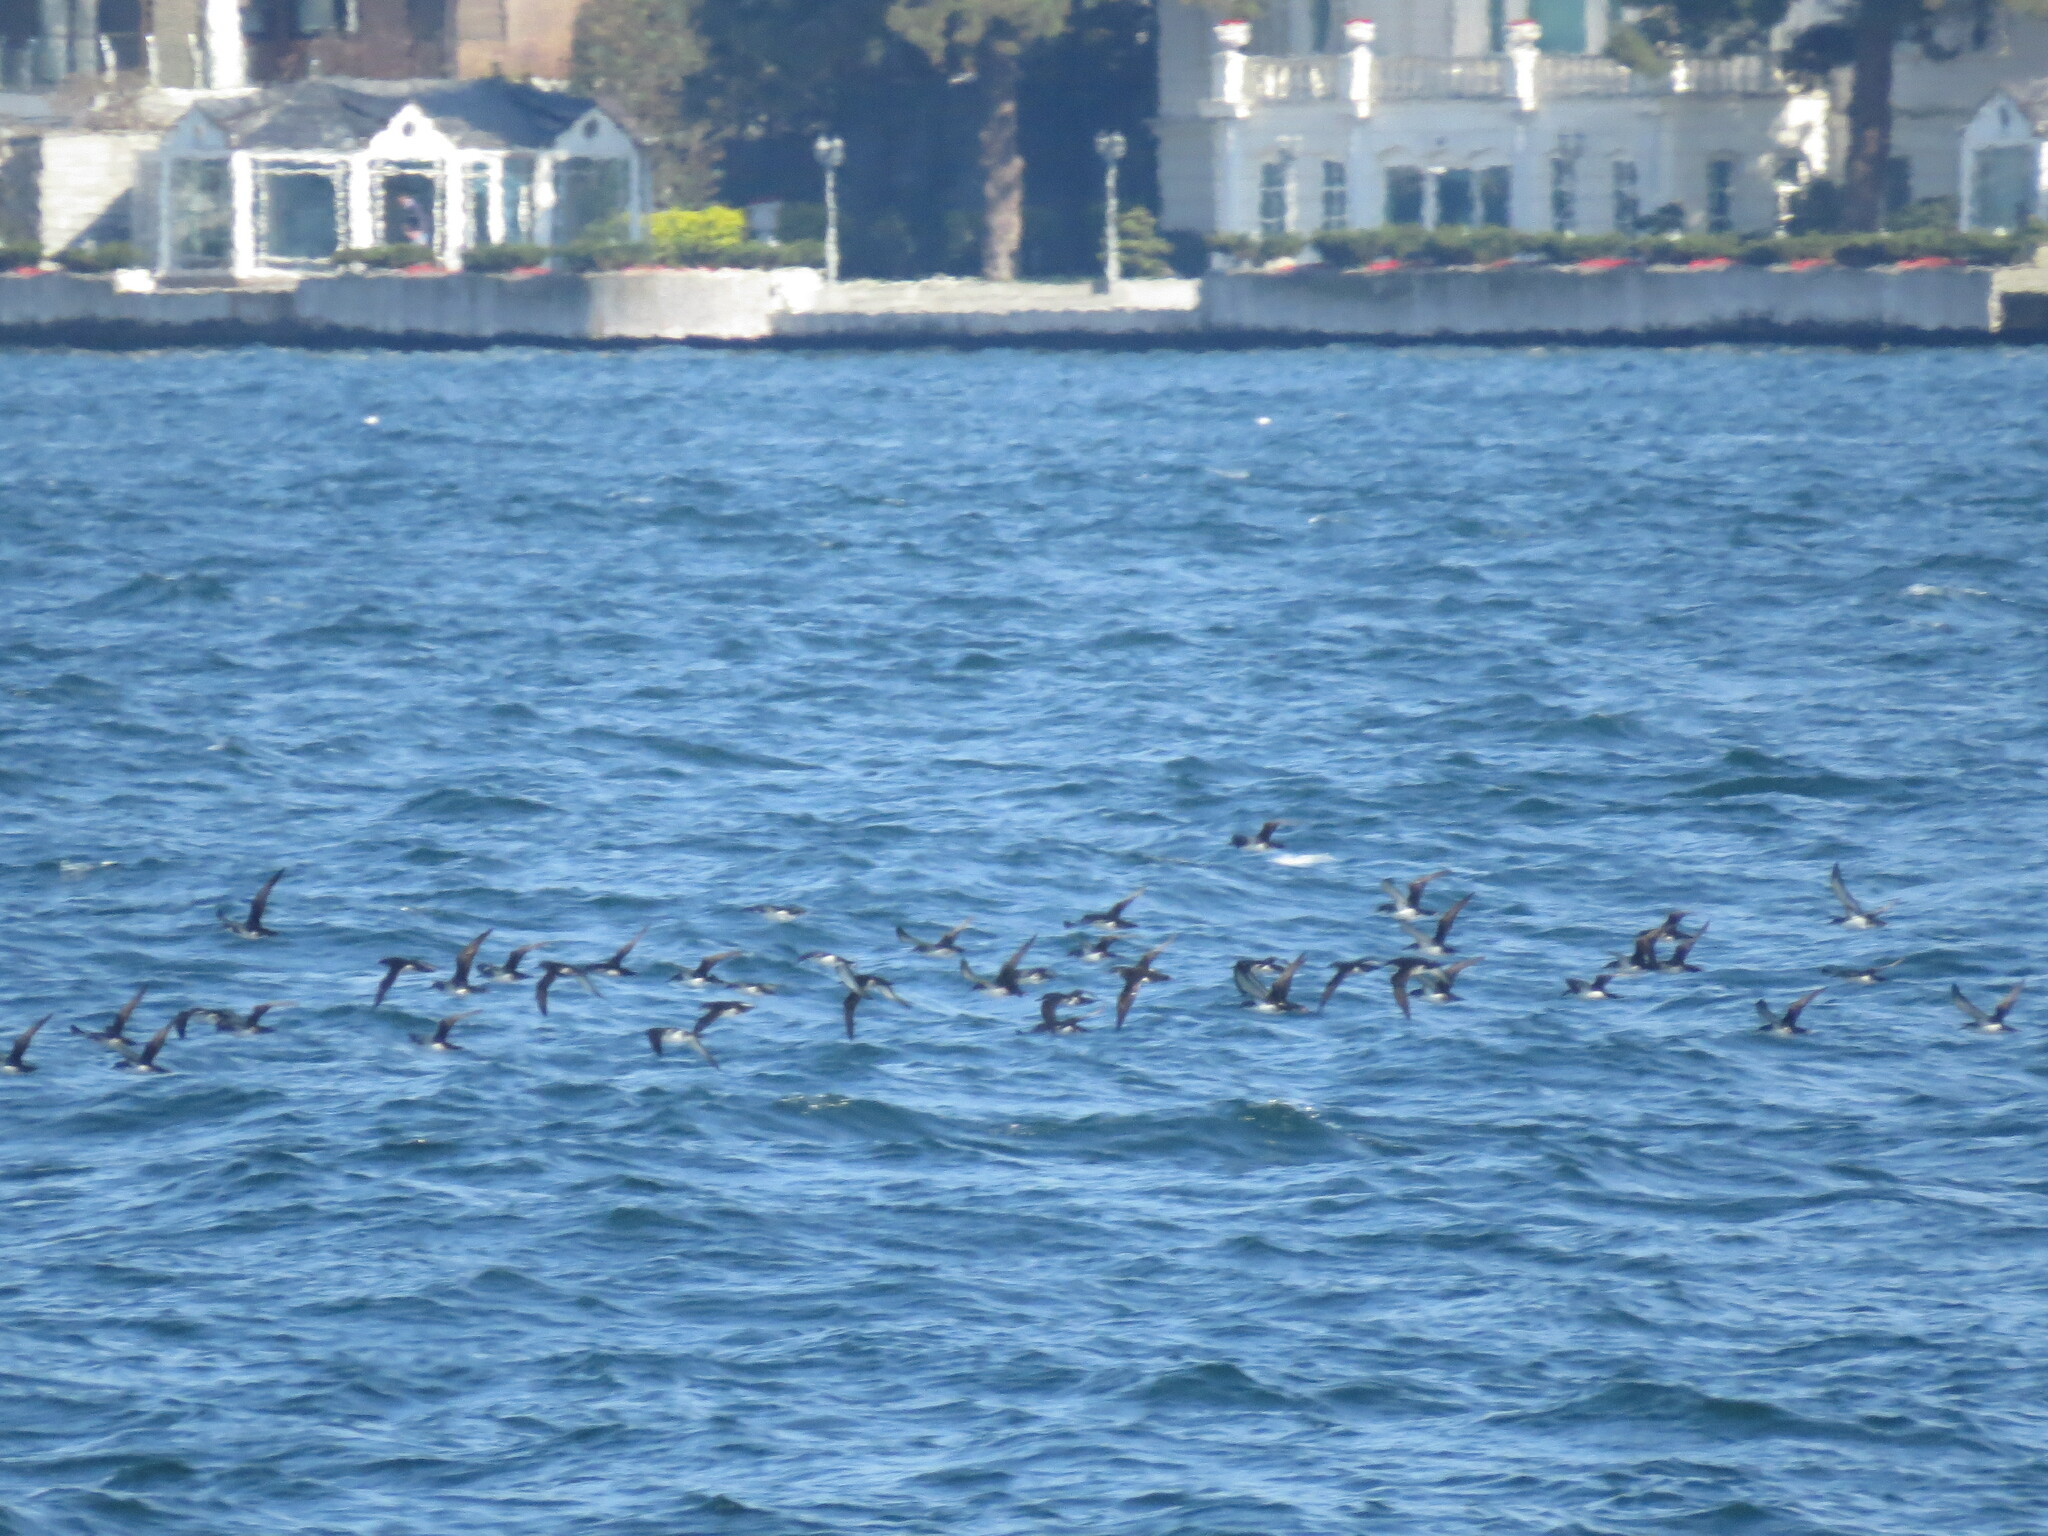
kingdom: Animalia
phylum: Chordata
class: Aves
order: Procellariiformes
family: Procellariidae
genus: Puffinus
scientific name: Puffinus yelkouan
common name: Yelkouan shearwater
